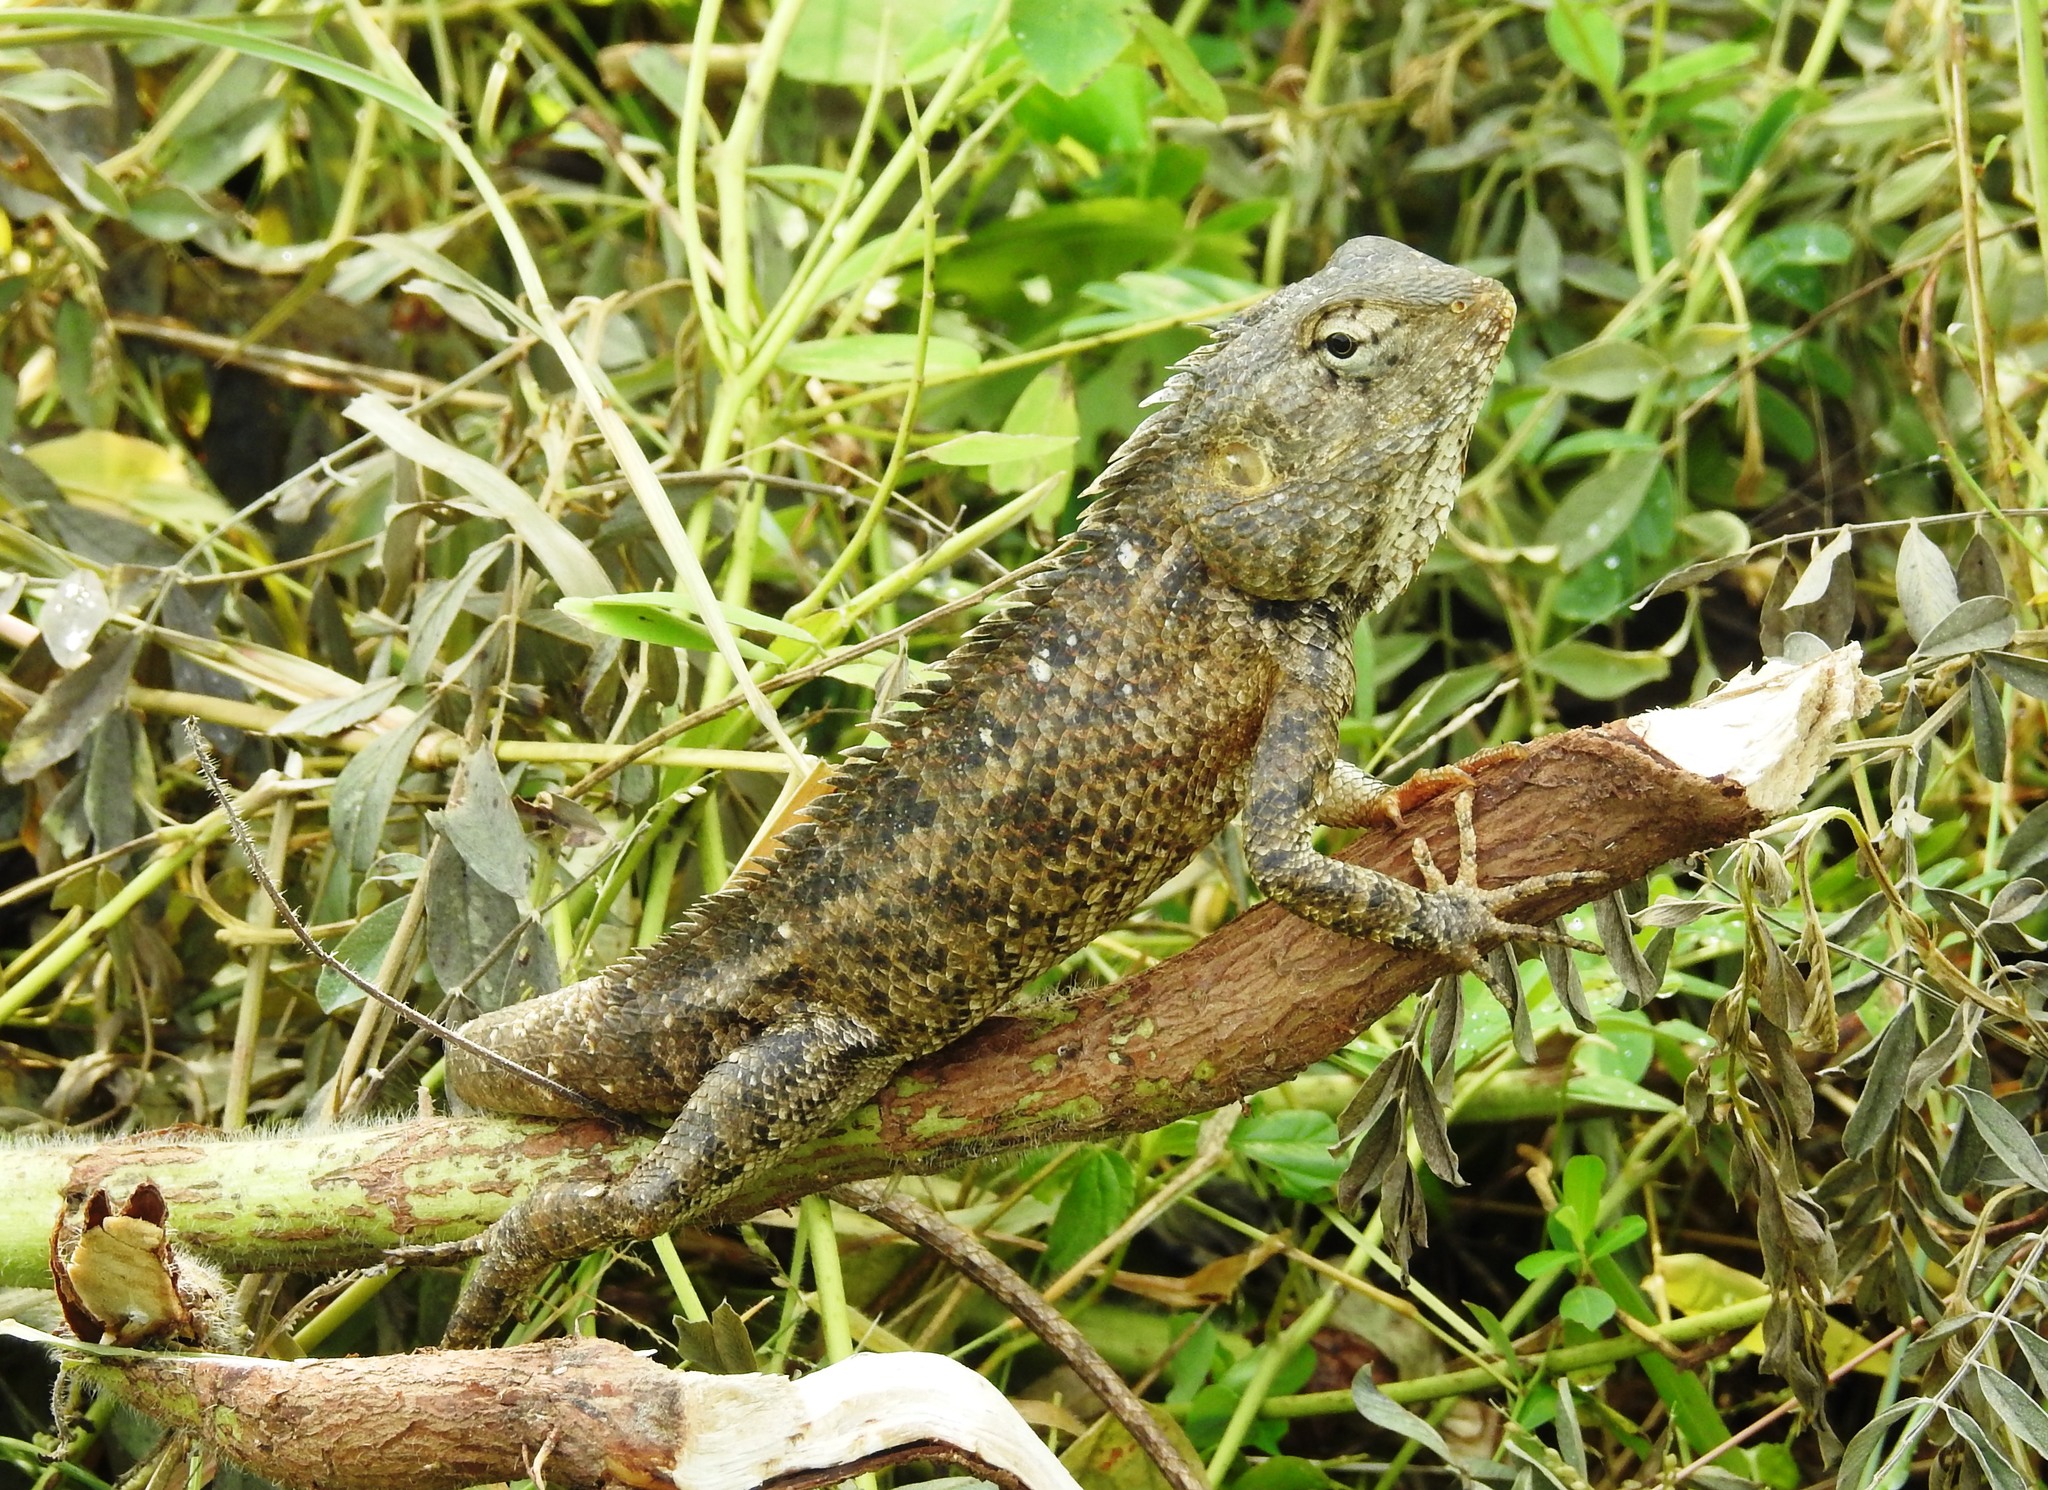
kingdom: Animalia
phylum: Chordata
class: Squamata
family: Agamidae
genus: Calotes
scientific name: Calotes versicolor
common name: Oriental garden lizard
